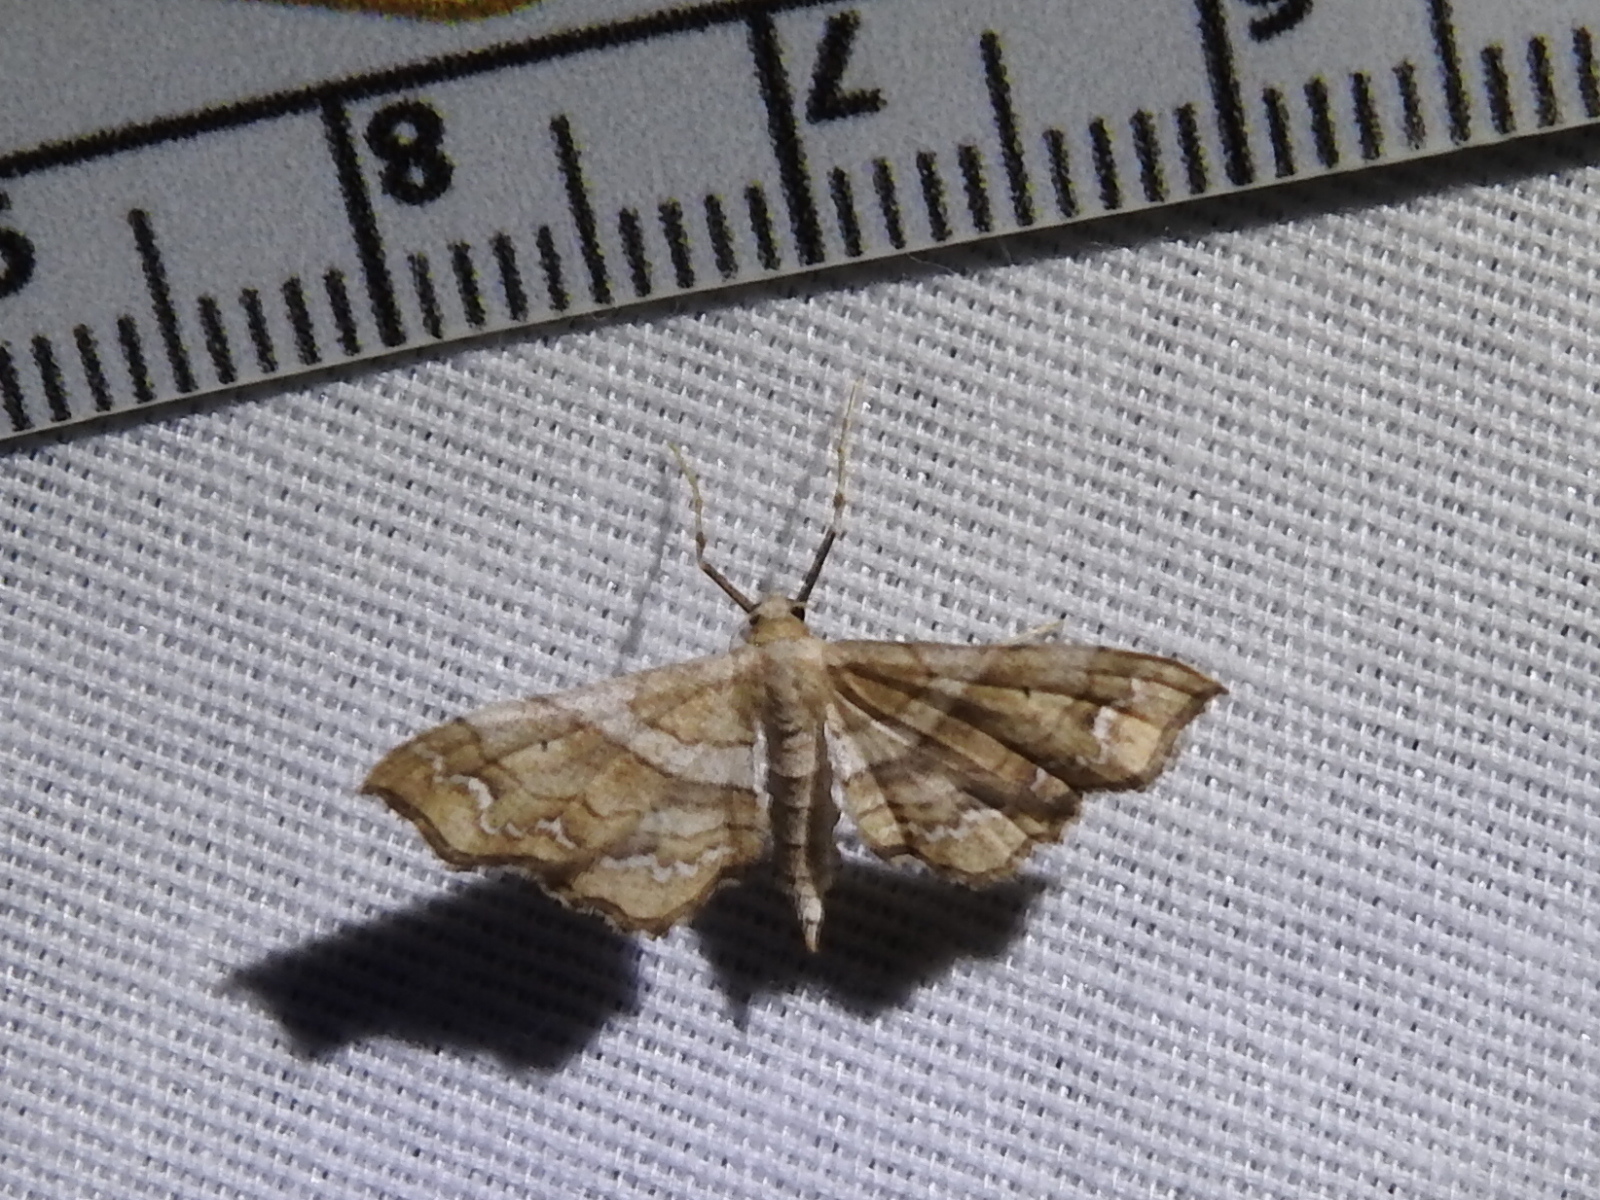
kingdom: Animalia
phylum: Arthropoda
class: Insecta
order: Lepidoptera
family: Geometridae
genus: Odontoptila
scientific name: Odontoptila obrimo
